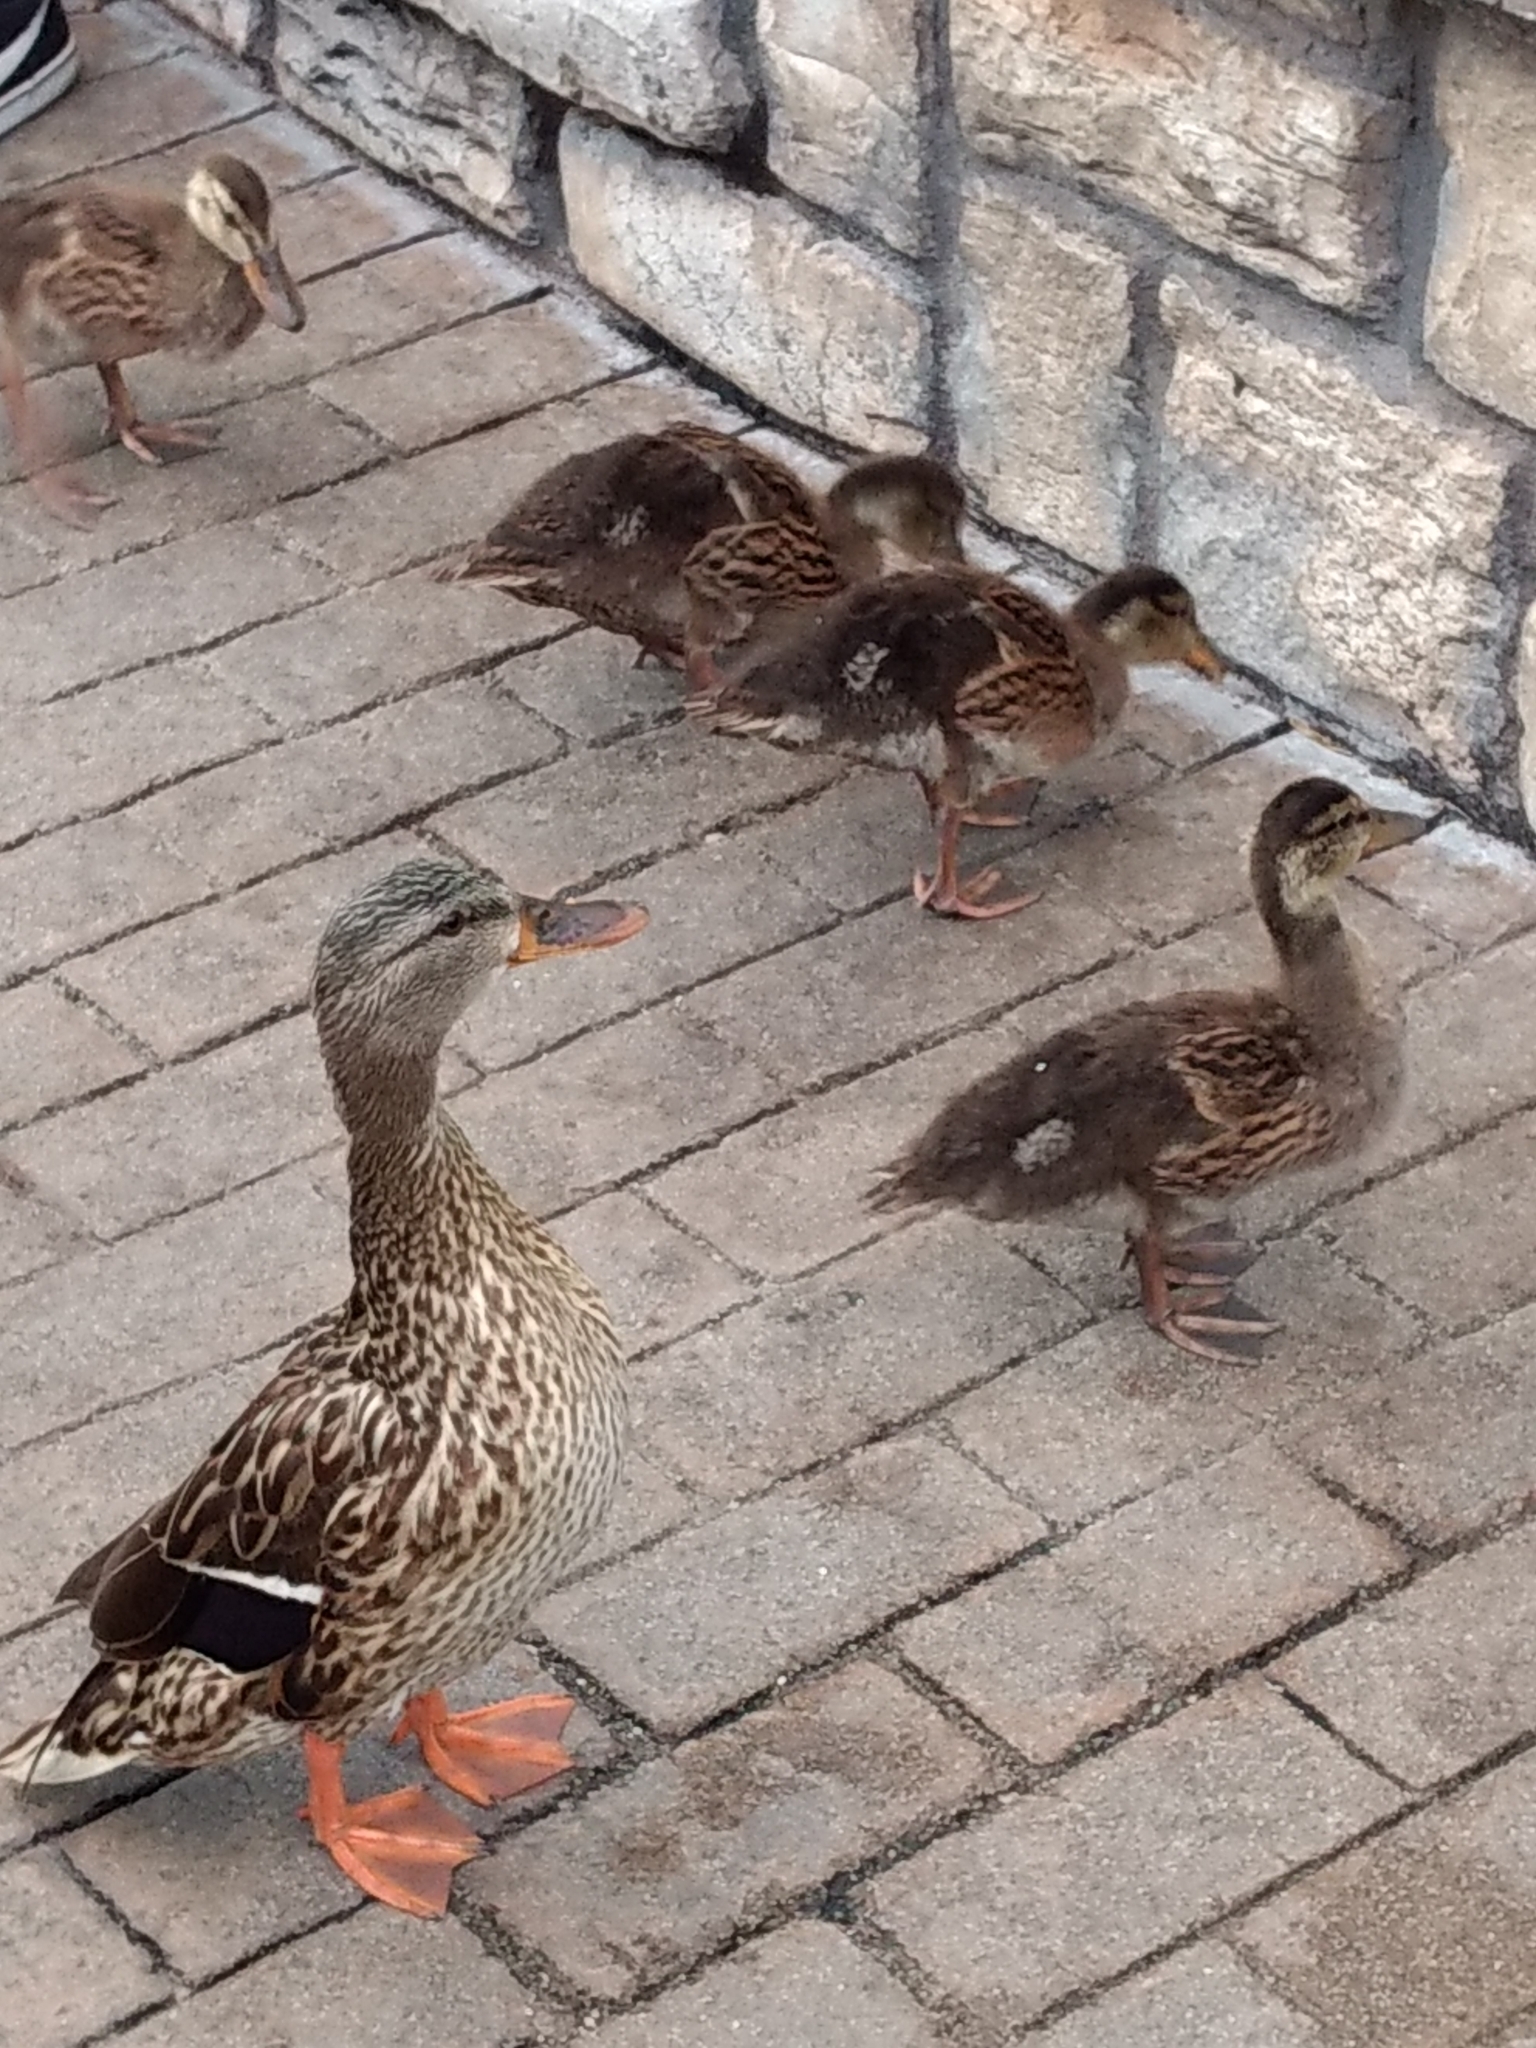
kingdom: Animalia
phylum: Chordata
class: Aves
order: Anseriformes
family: Anatidae
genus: Anas
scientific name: Anas platyrhynchos
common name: Mallard
